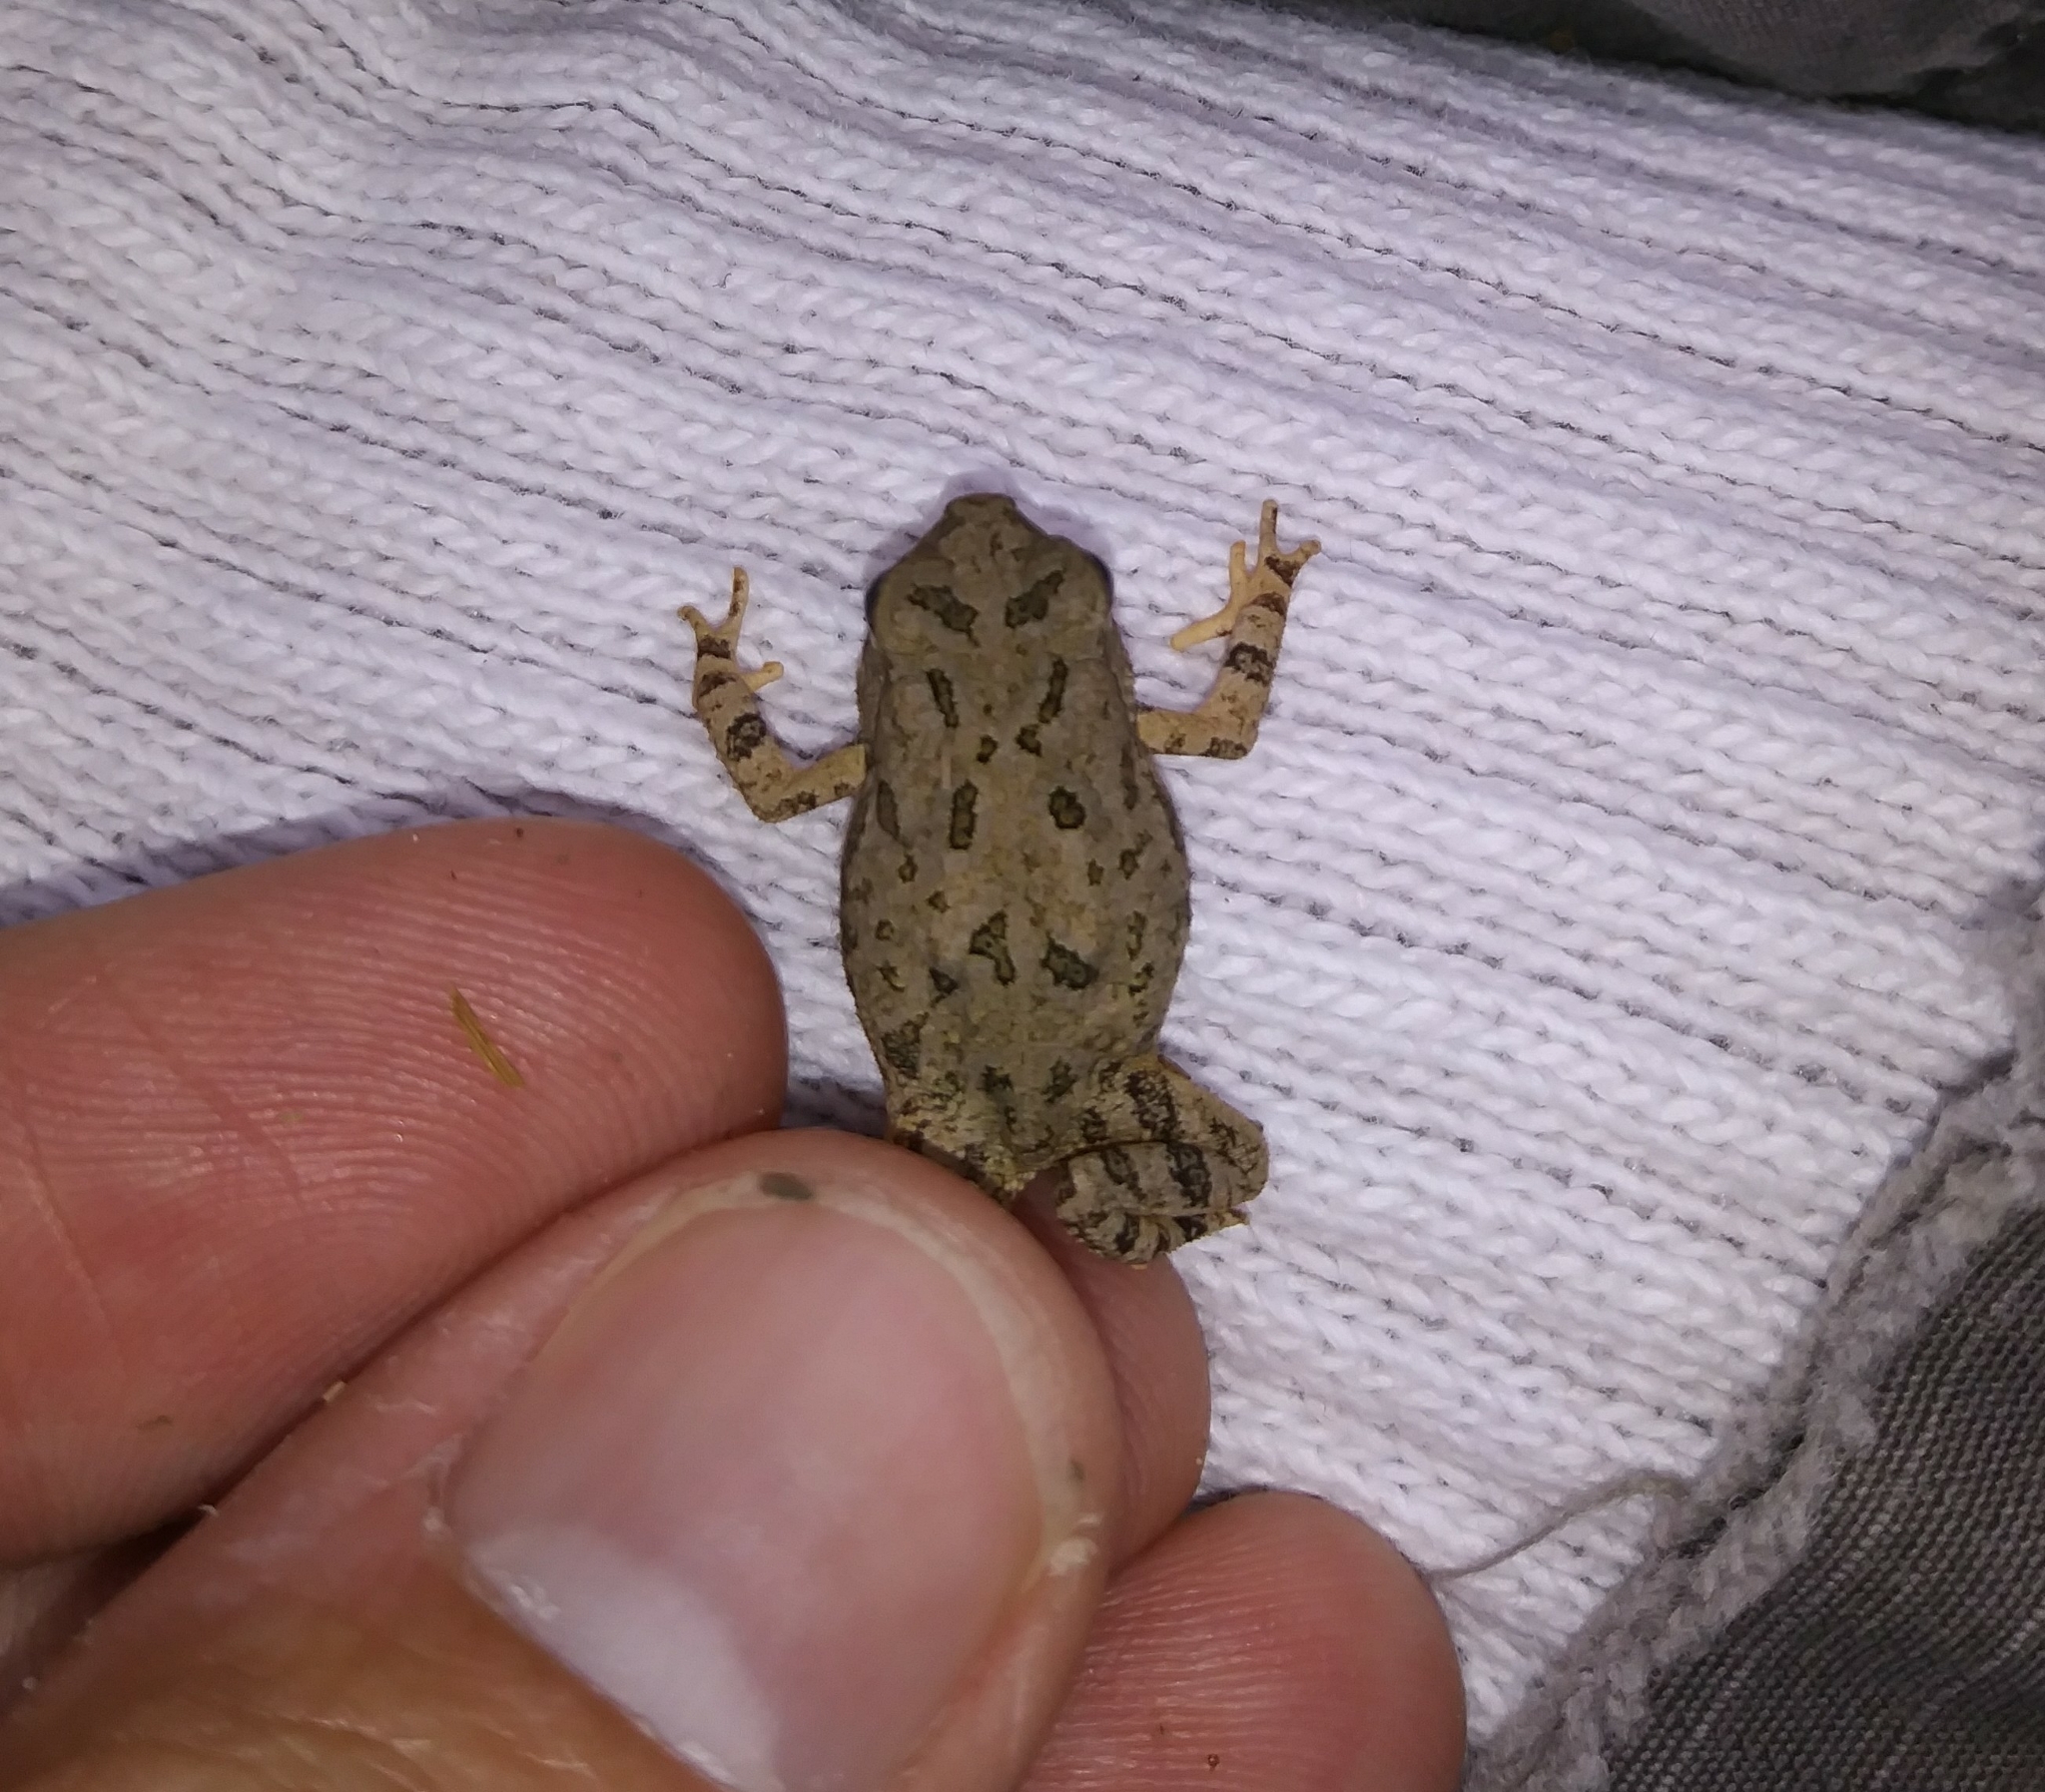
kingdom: Animalia
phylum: Chordata
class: Amphibia
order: Anura
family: Bufonidae
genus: Anaxyrus
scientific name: Anaxyrus fowleri
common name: Fowler's toad
